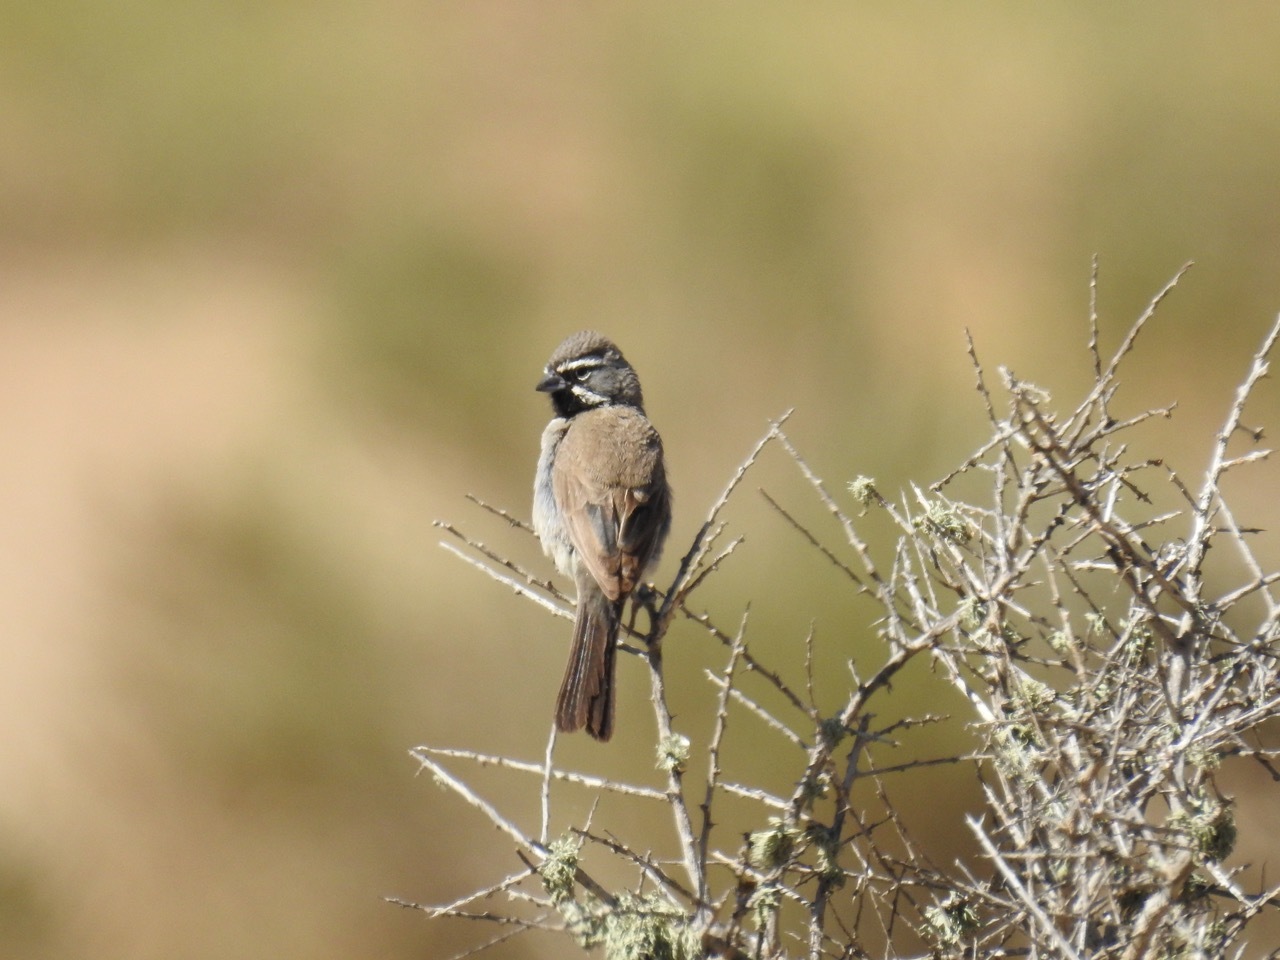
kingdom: Animalia
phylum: Chordata
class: Aves
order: Passeriformes
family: Passerellidae
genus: Amphispiza
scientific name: Amphispiza bilineata
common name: Black-throated sparrow
